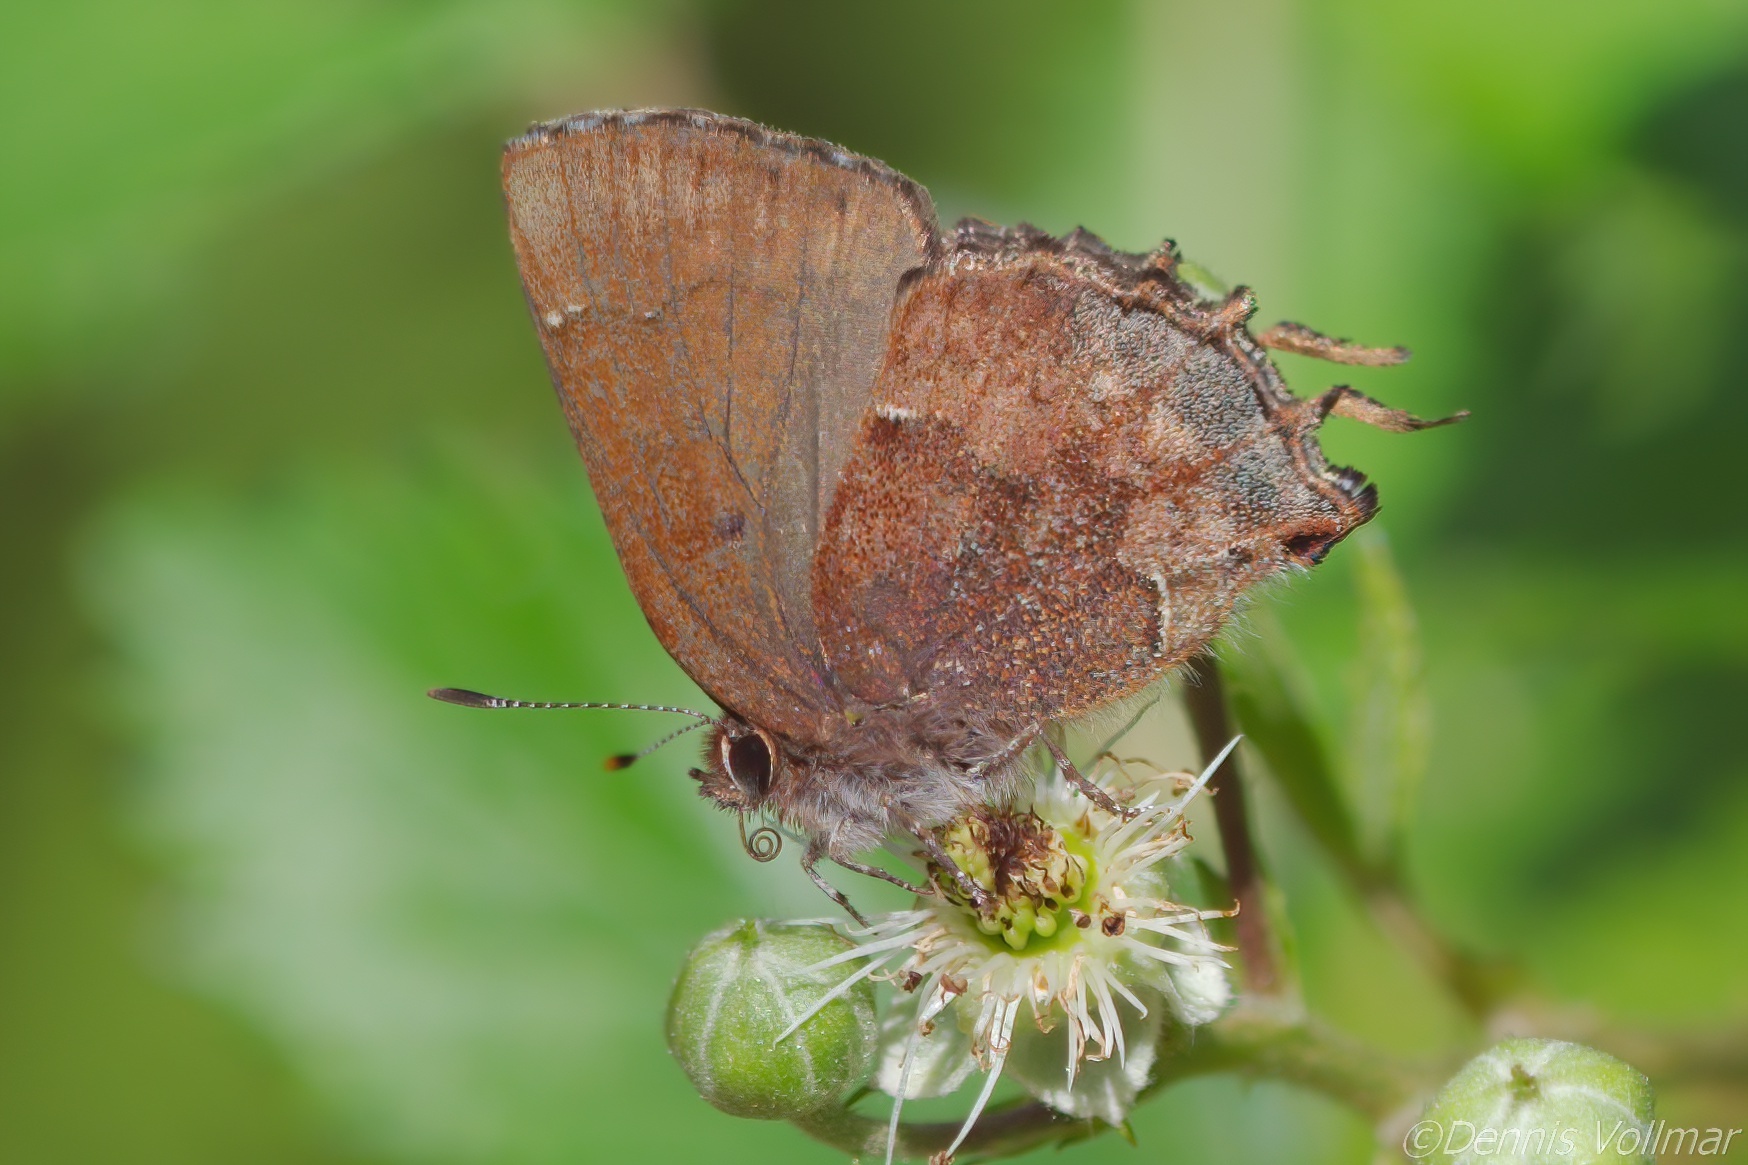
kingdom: Animalia
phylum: Arthropoda
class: Insecta
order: Lepidoptera
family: Lycaenidae
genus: Incisalia
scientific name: Incisalia henrici
